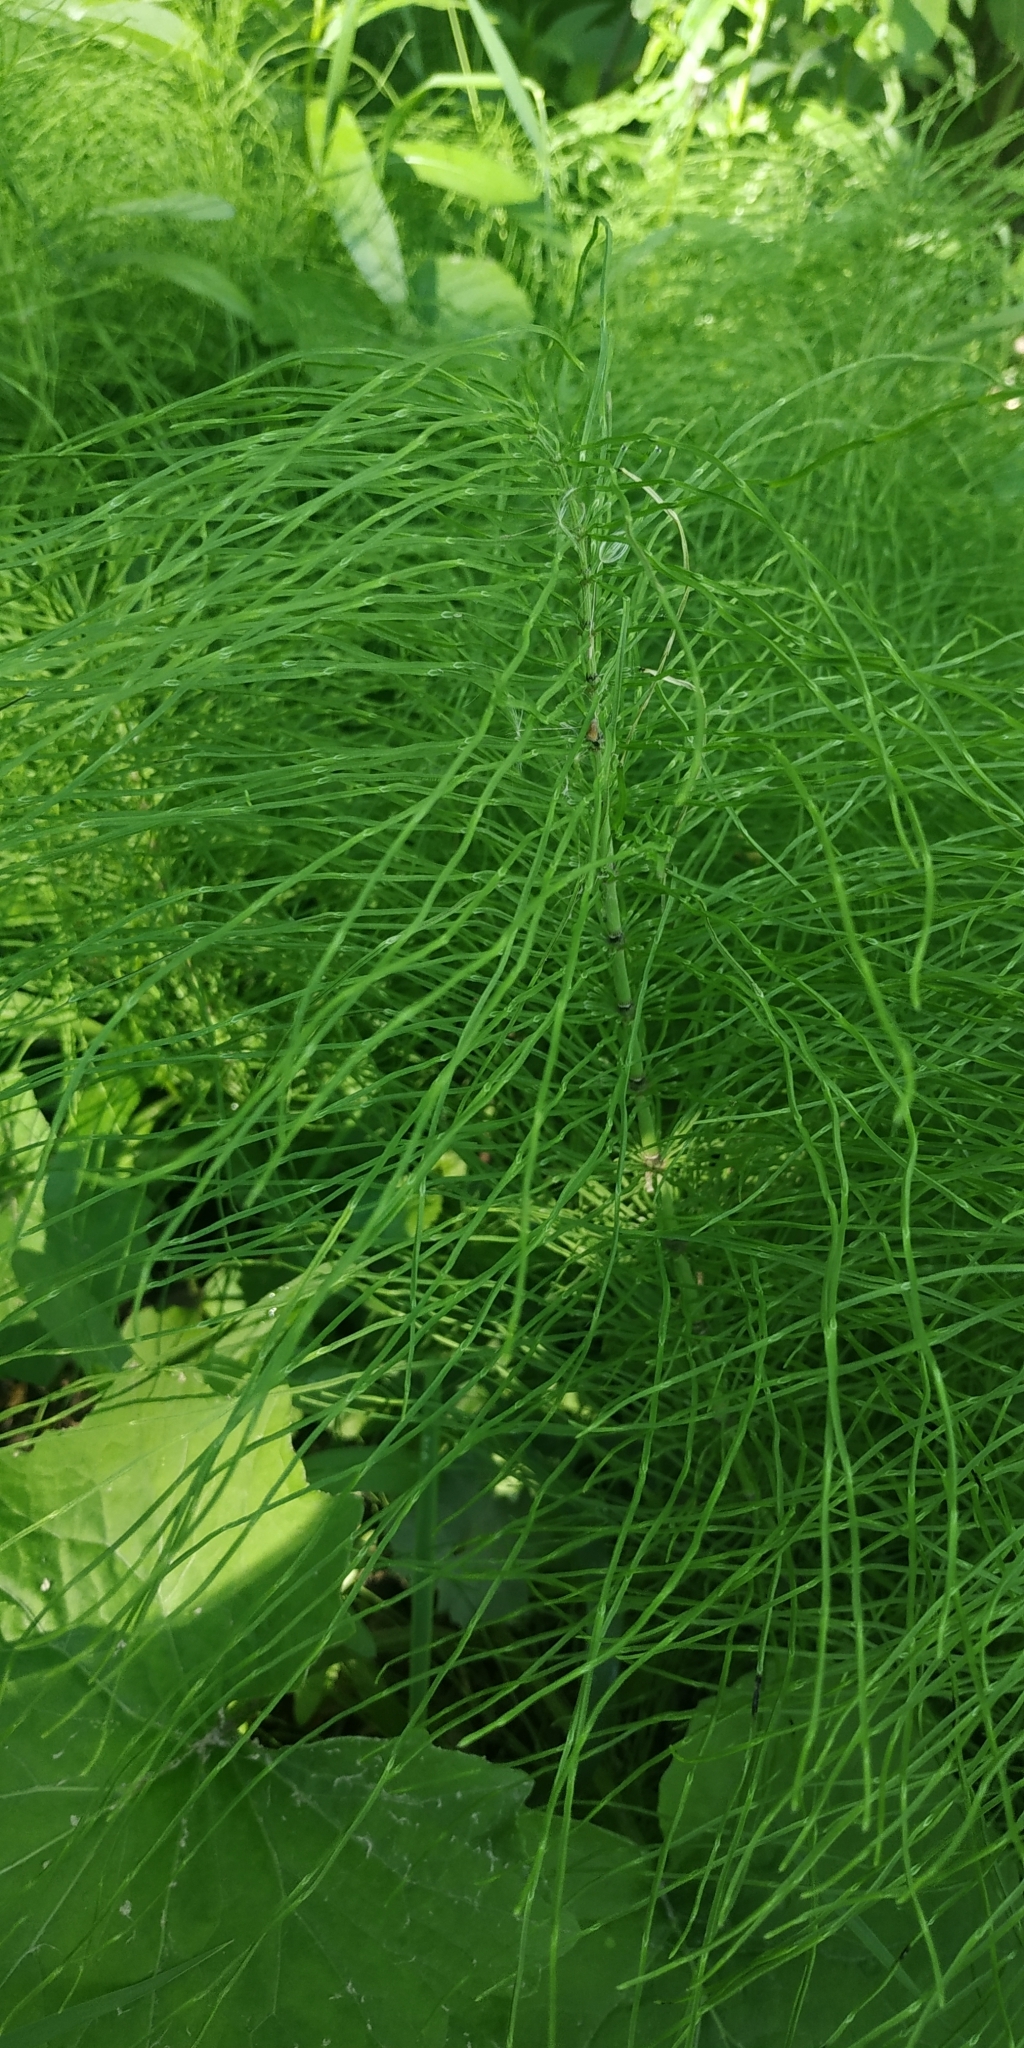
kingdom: Plantae
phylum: Tracheophyta
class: Polypodiopsida
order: Equisetales
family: Equisetaceae
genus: Equisetum
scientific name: Equisetum pratense
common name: Meadow horsetail
